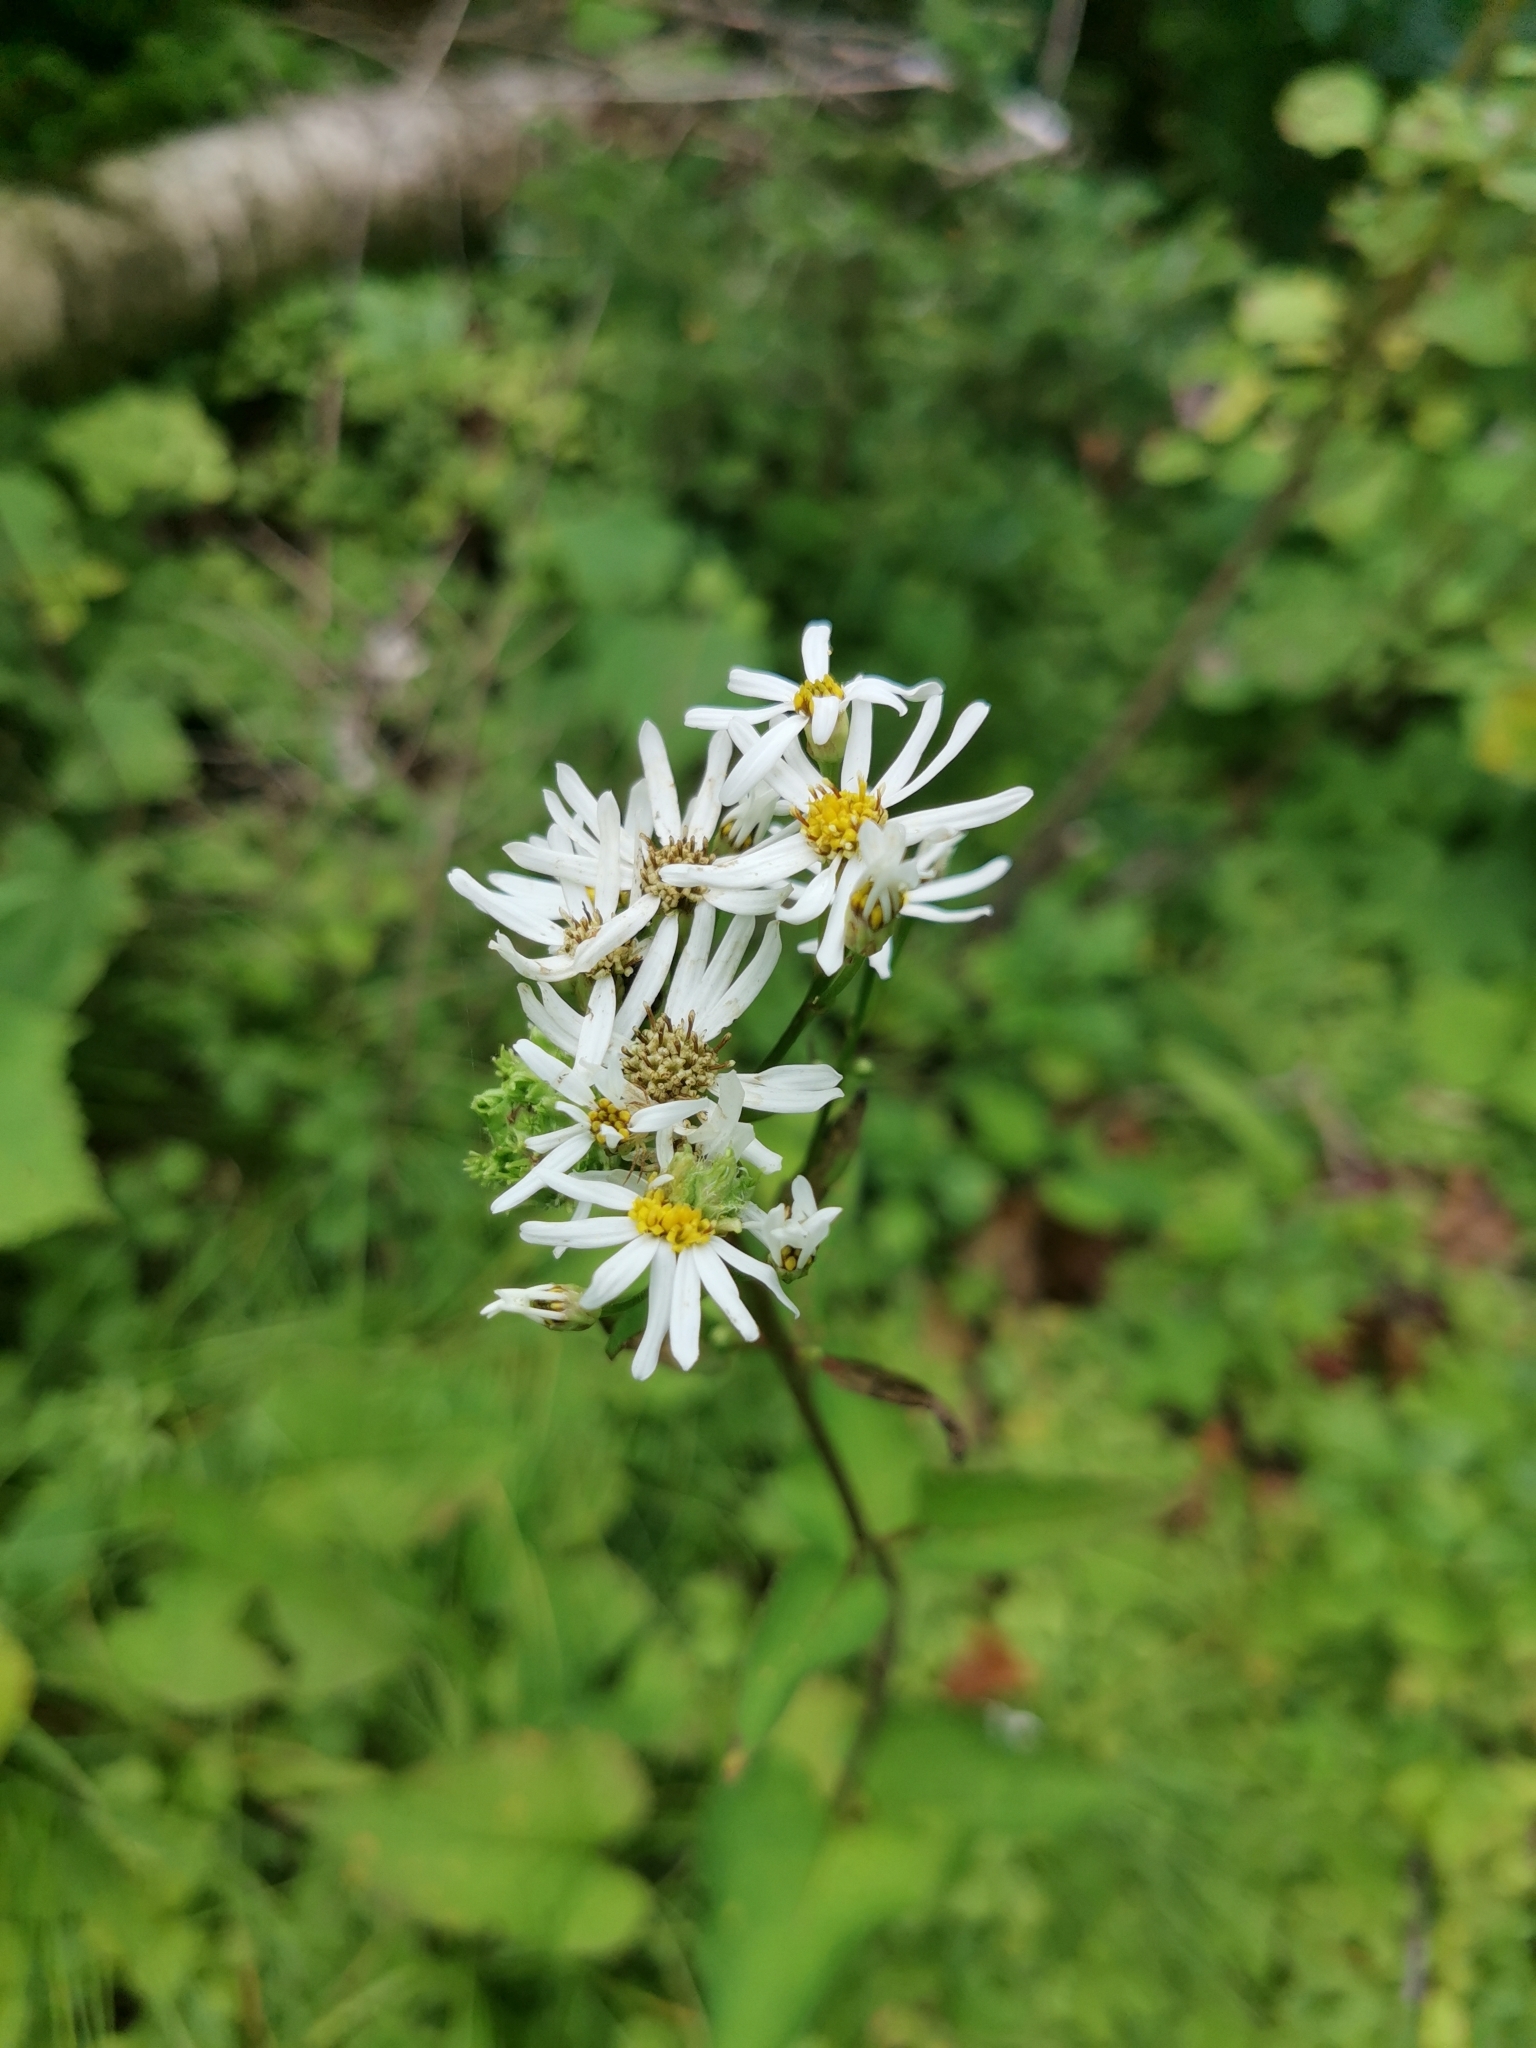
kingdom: Plantae
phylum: Tracheophyta
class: Magnoliopsida
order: Asterales
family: Asteraceae
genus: Aster
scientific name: Aster scaber
